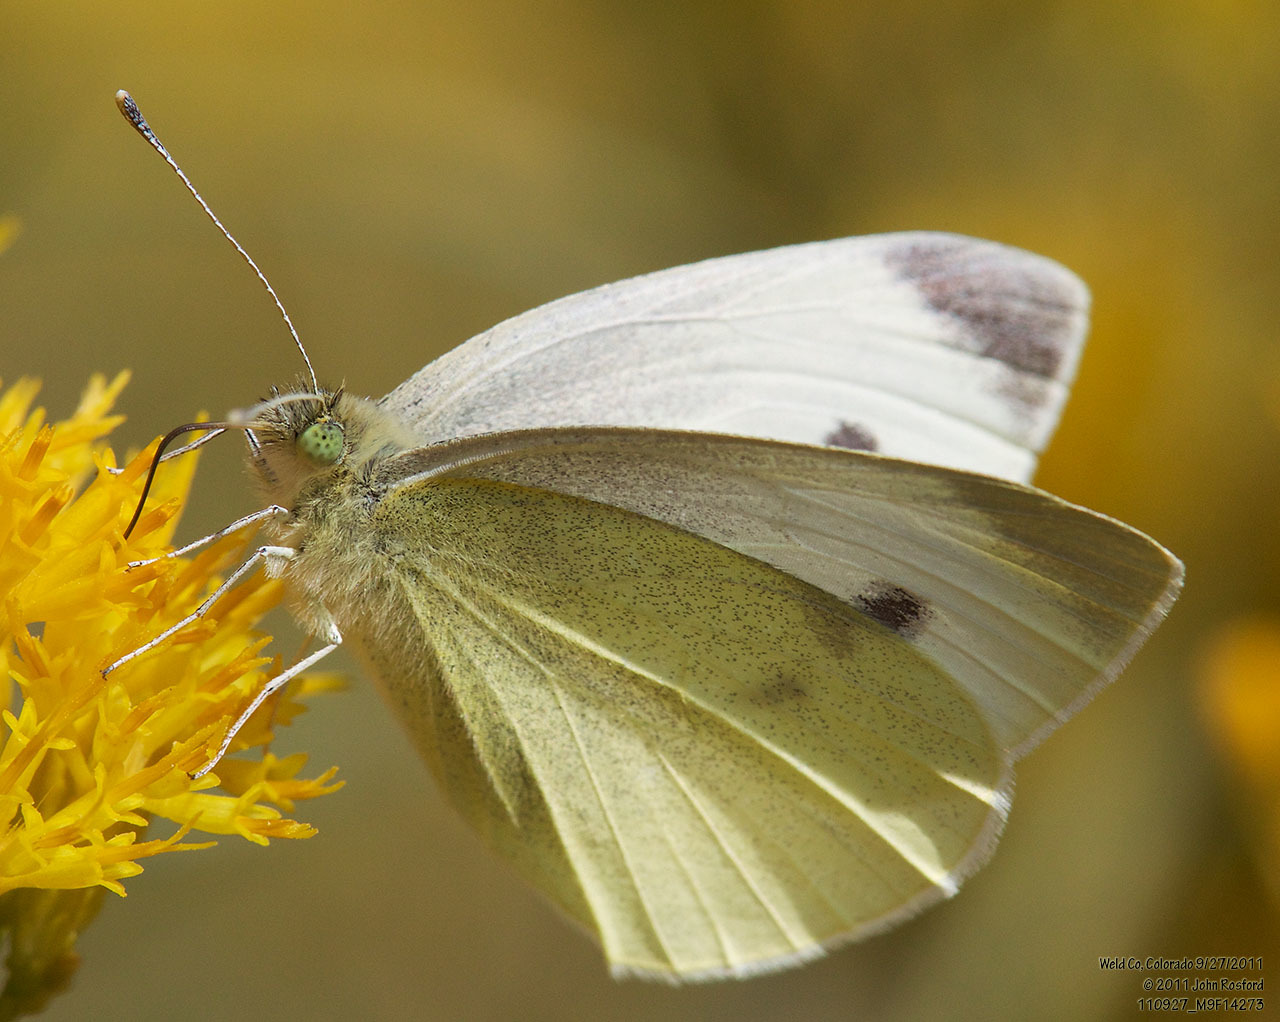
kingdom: Animalia
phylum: Arthropoda
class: Insecta
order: Lepidoptera
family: Pieridae
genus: Pieris
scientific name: Pieris rapae
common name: Small white
